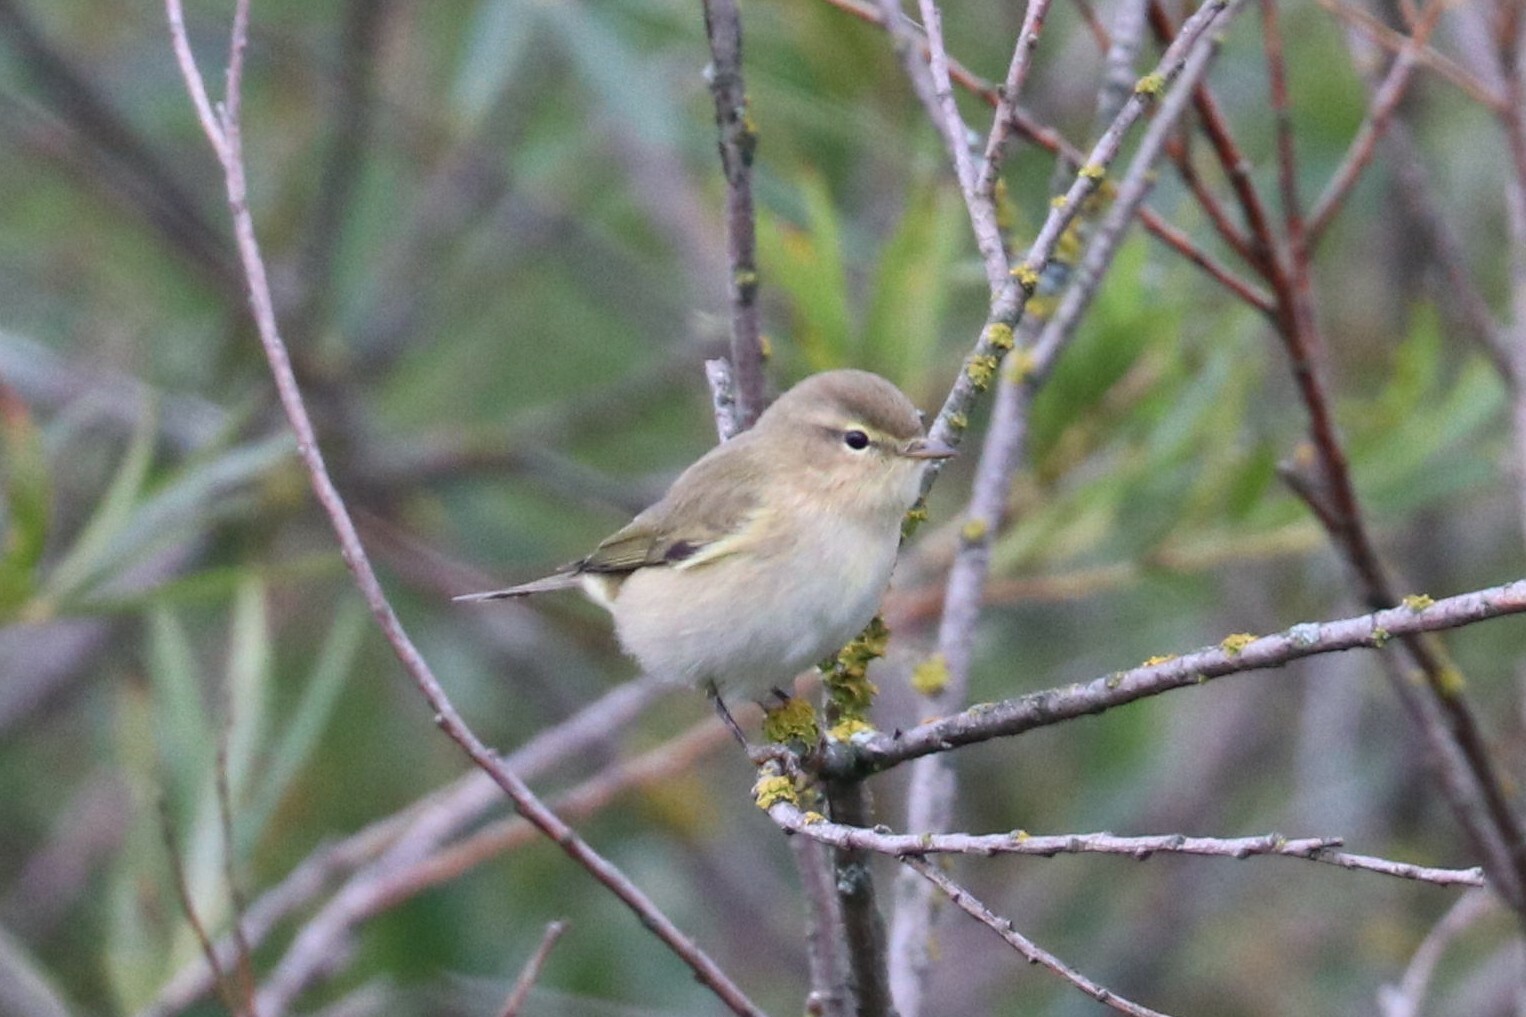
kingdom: Animalia
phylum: Chordata
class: Aves
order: Passeriformes
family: Phylloscopidae
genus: Phylloscopus
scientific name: Phylloscopus collybita
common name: Common chiffchaff
